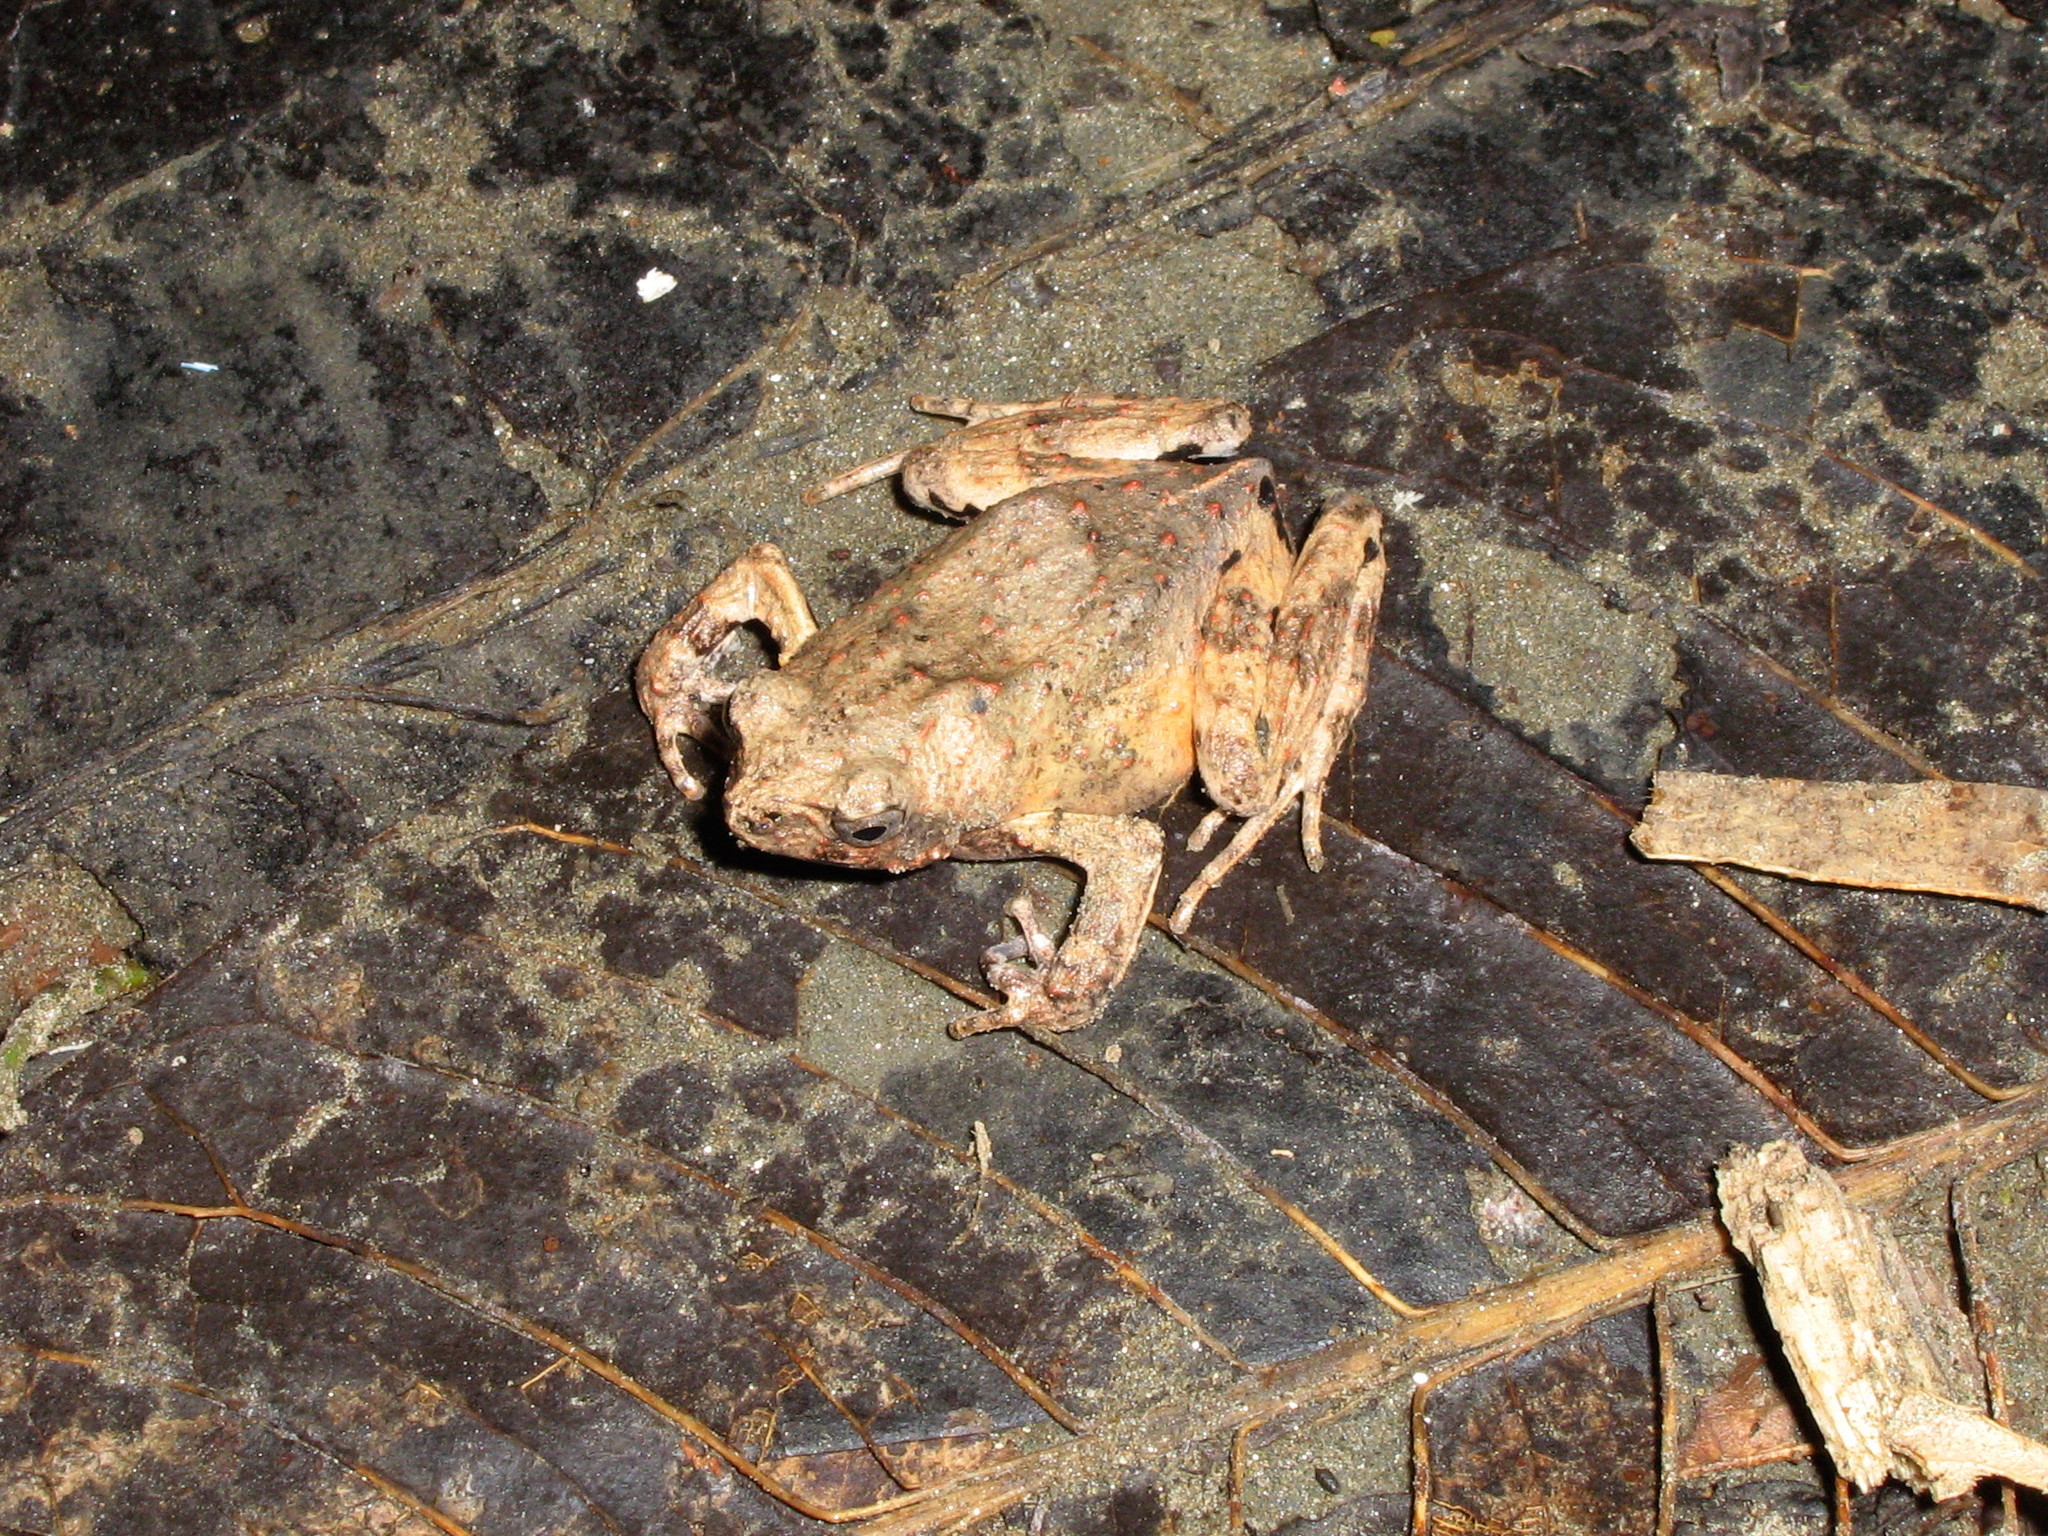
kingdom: Animalia
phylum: Chordata
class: Amphibia
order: Anura
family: Leptodactylidae
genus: Engystomops
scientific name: Engystomops freibergi
